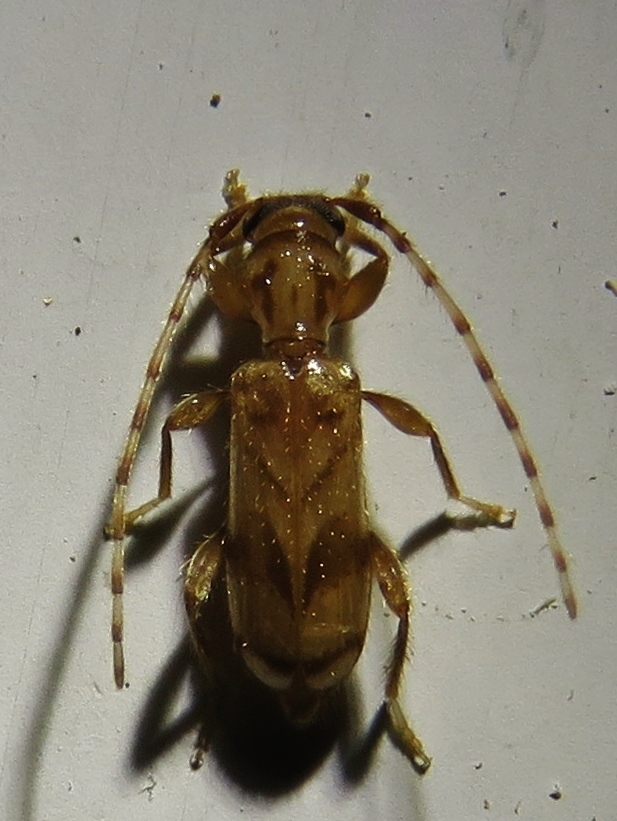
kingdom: Animalia
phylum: Arthropoda
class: Insecta
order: Coleoptera
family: Cerambycidae
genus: Obrium
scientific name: Obrium maculatum
